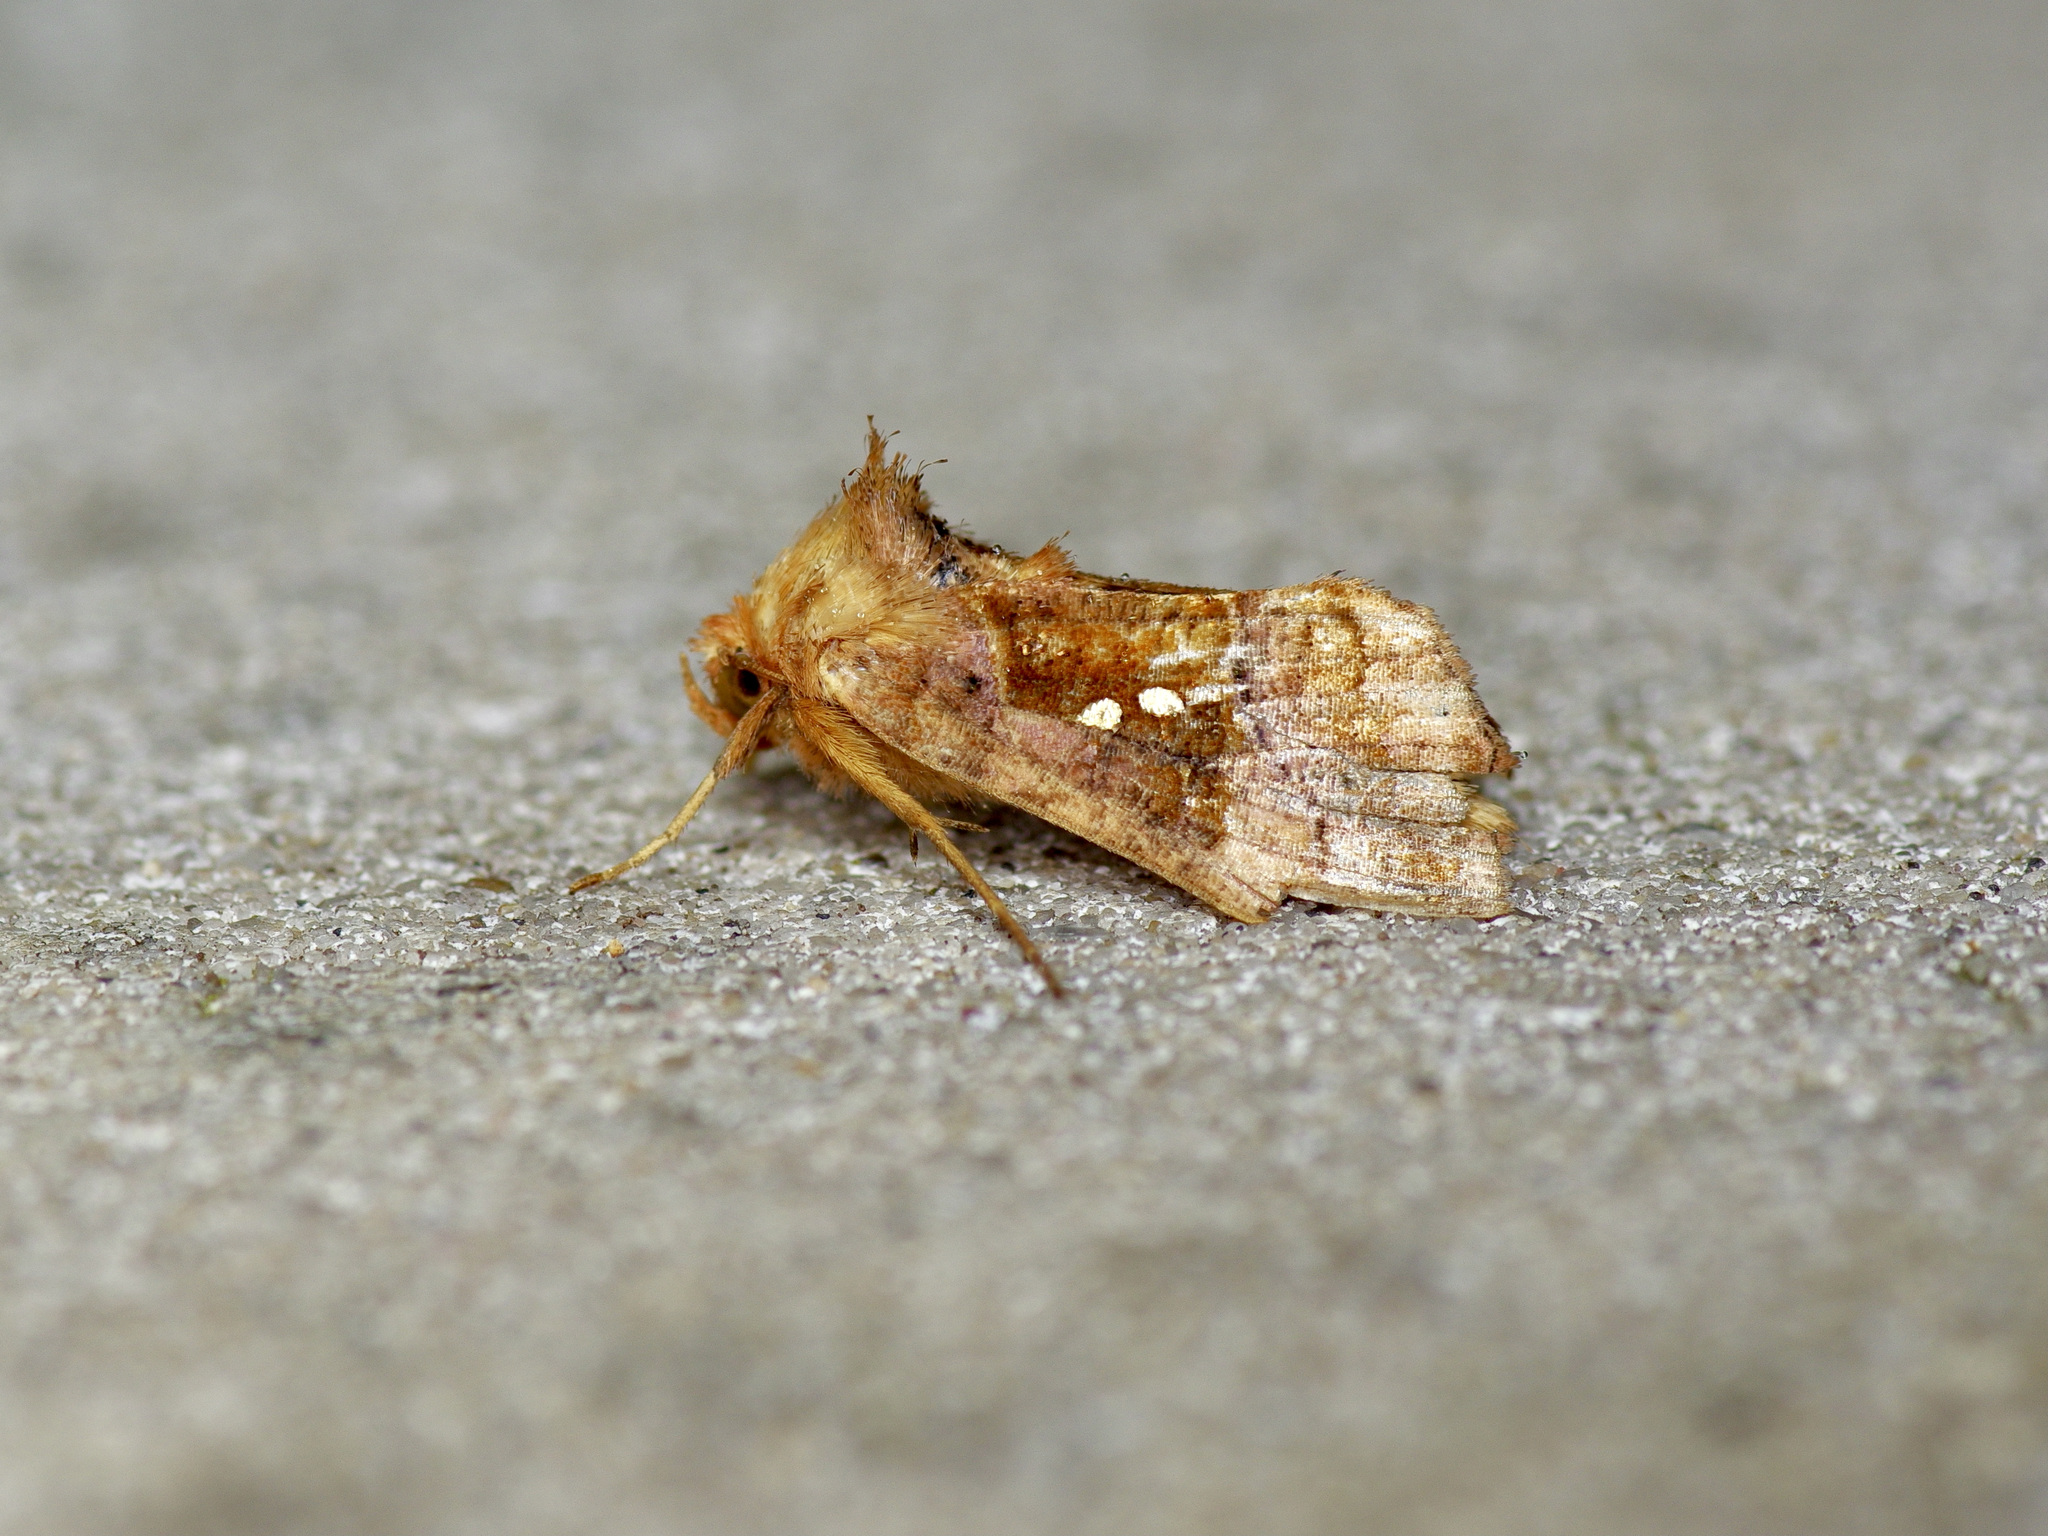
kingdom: Animalia
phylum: Arthropoda
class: Insecta
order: Lepidoptera
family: Noctuidae
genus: Enigmogramma
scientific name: Enigmogramma basigera
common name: Pink-washed looper moth
